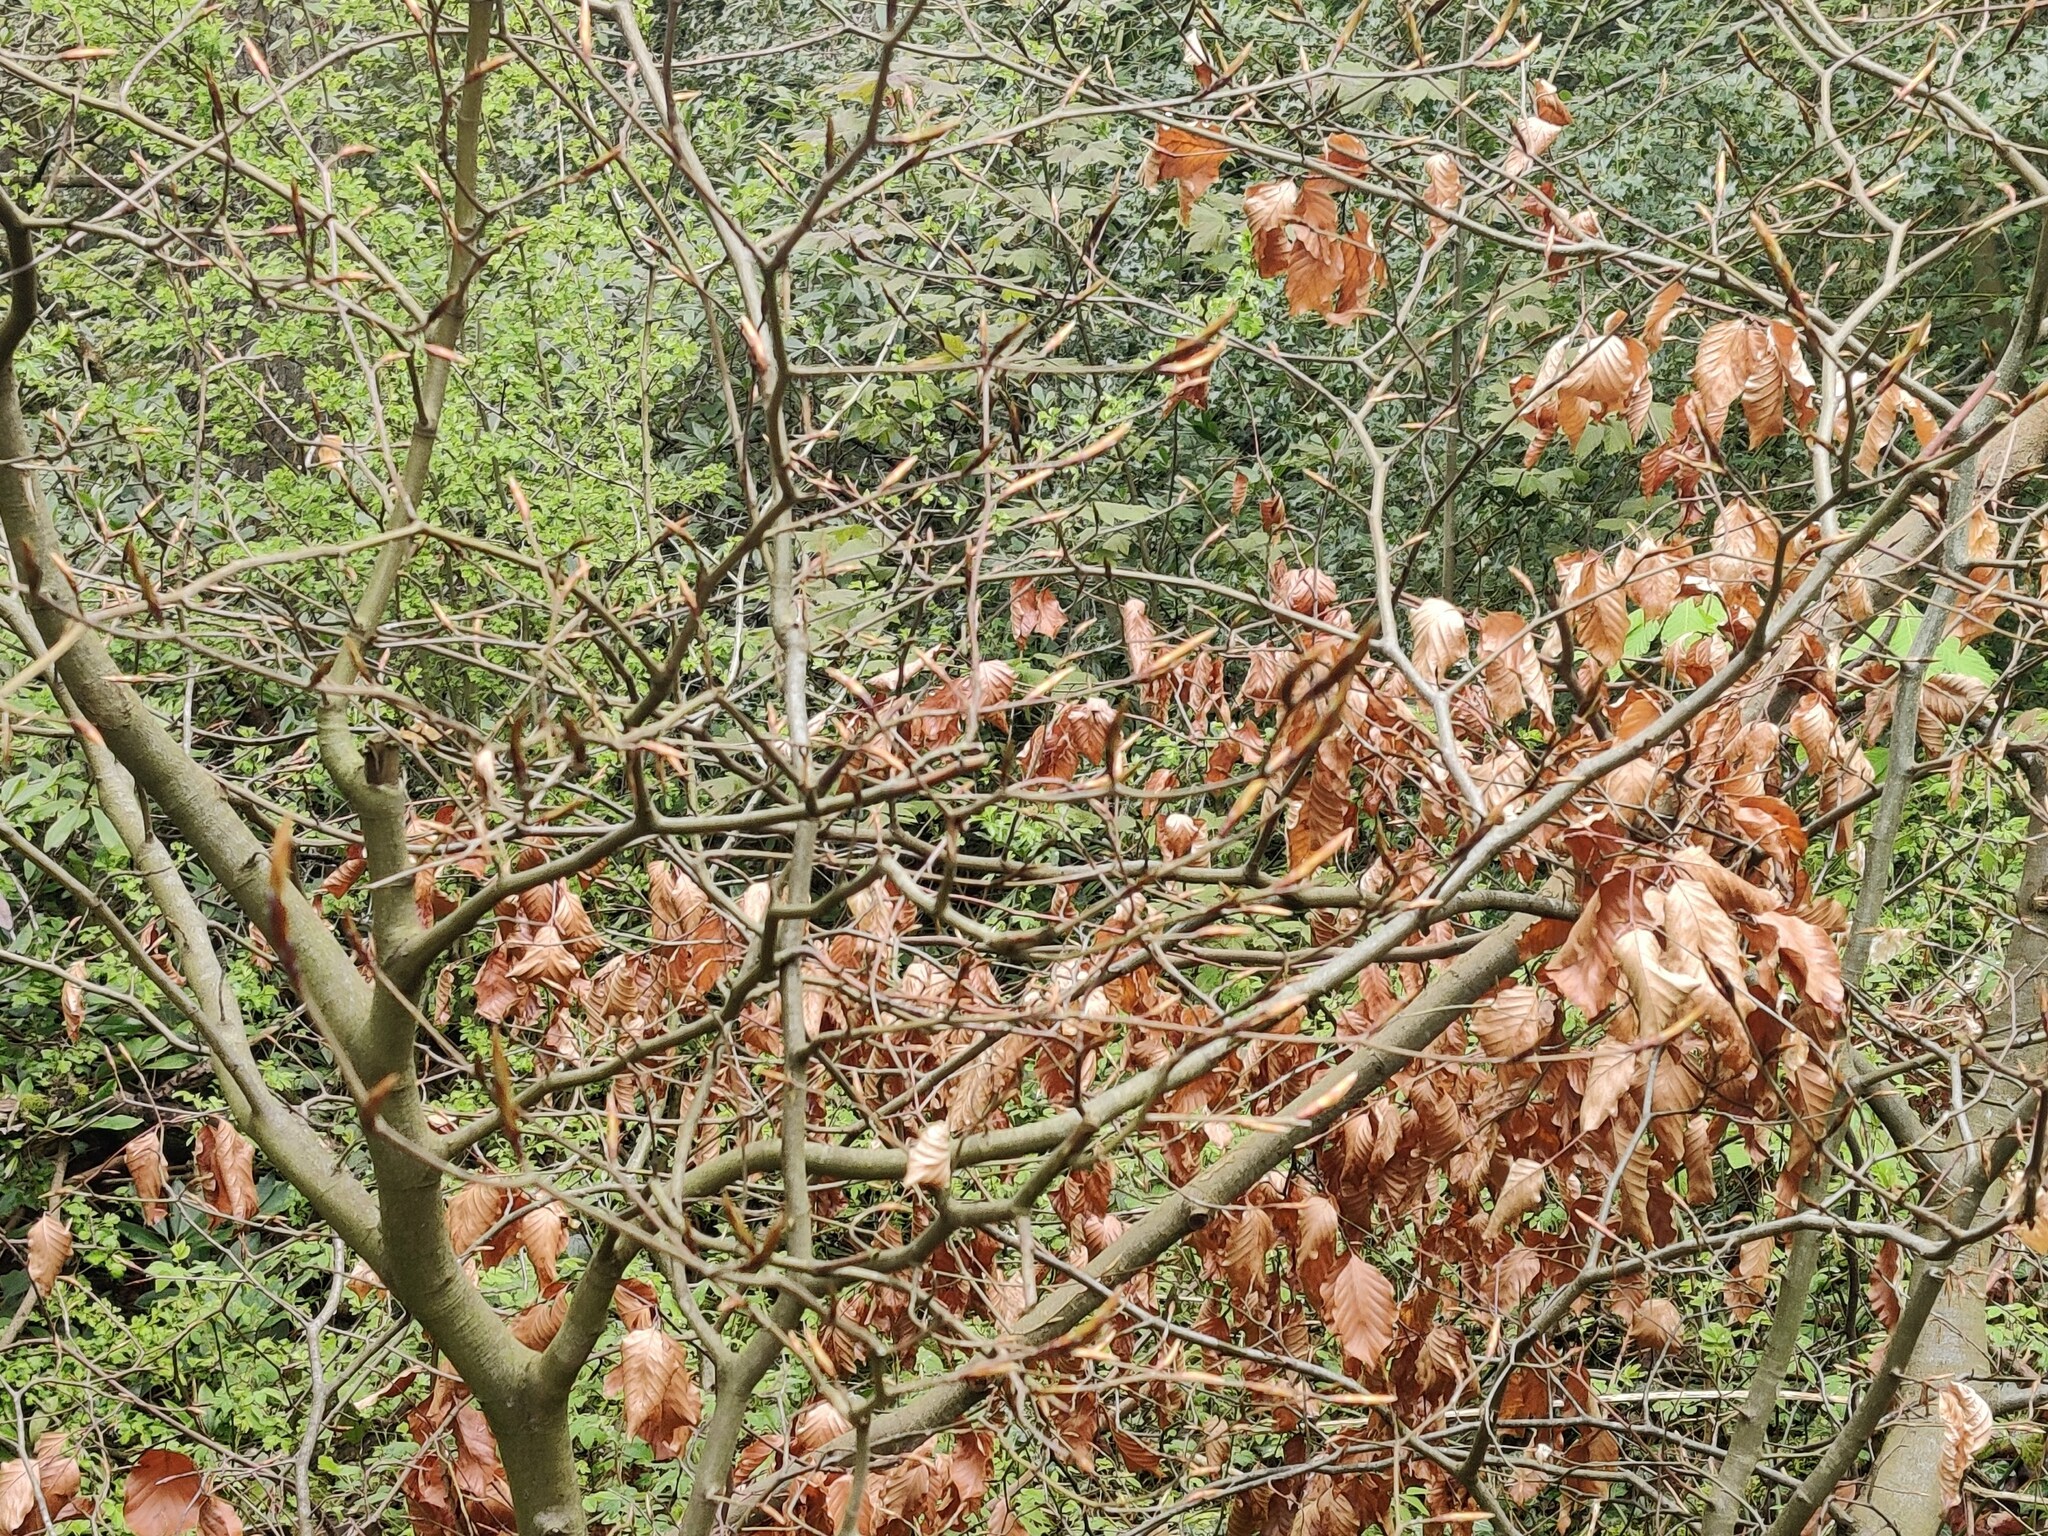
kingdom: Plantae
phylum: Tracheophyta
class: Magnoliopsida
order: Fagales
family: Fagaceae
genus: Fagus
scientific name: Fagus sylvatica
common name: Beech
